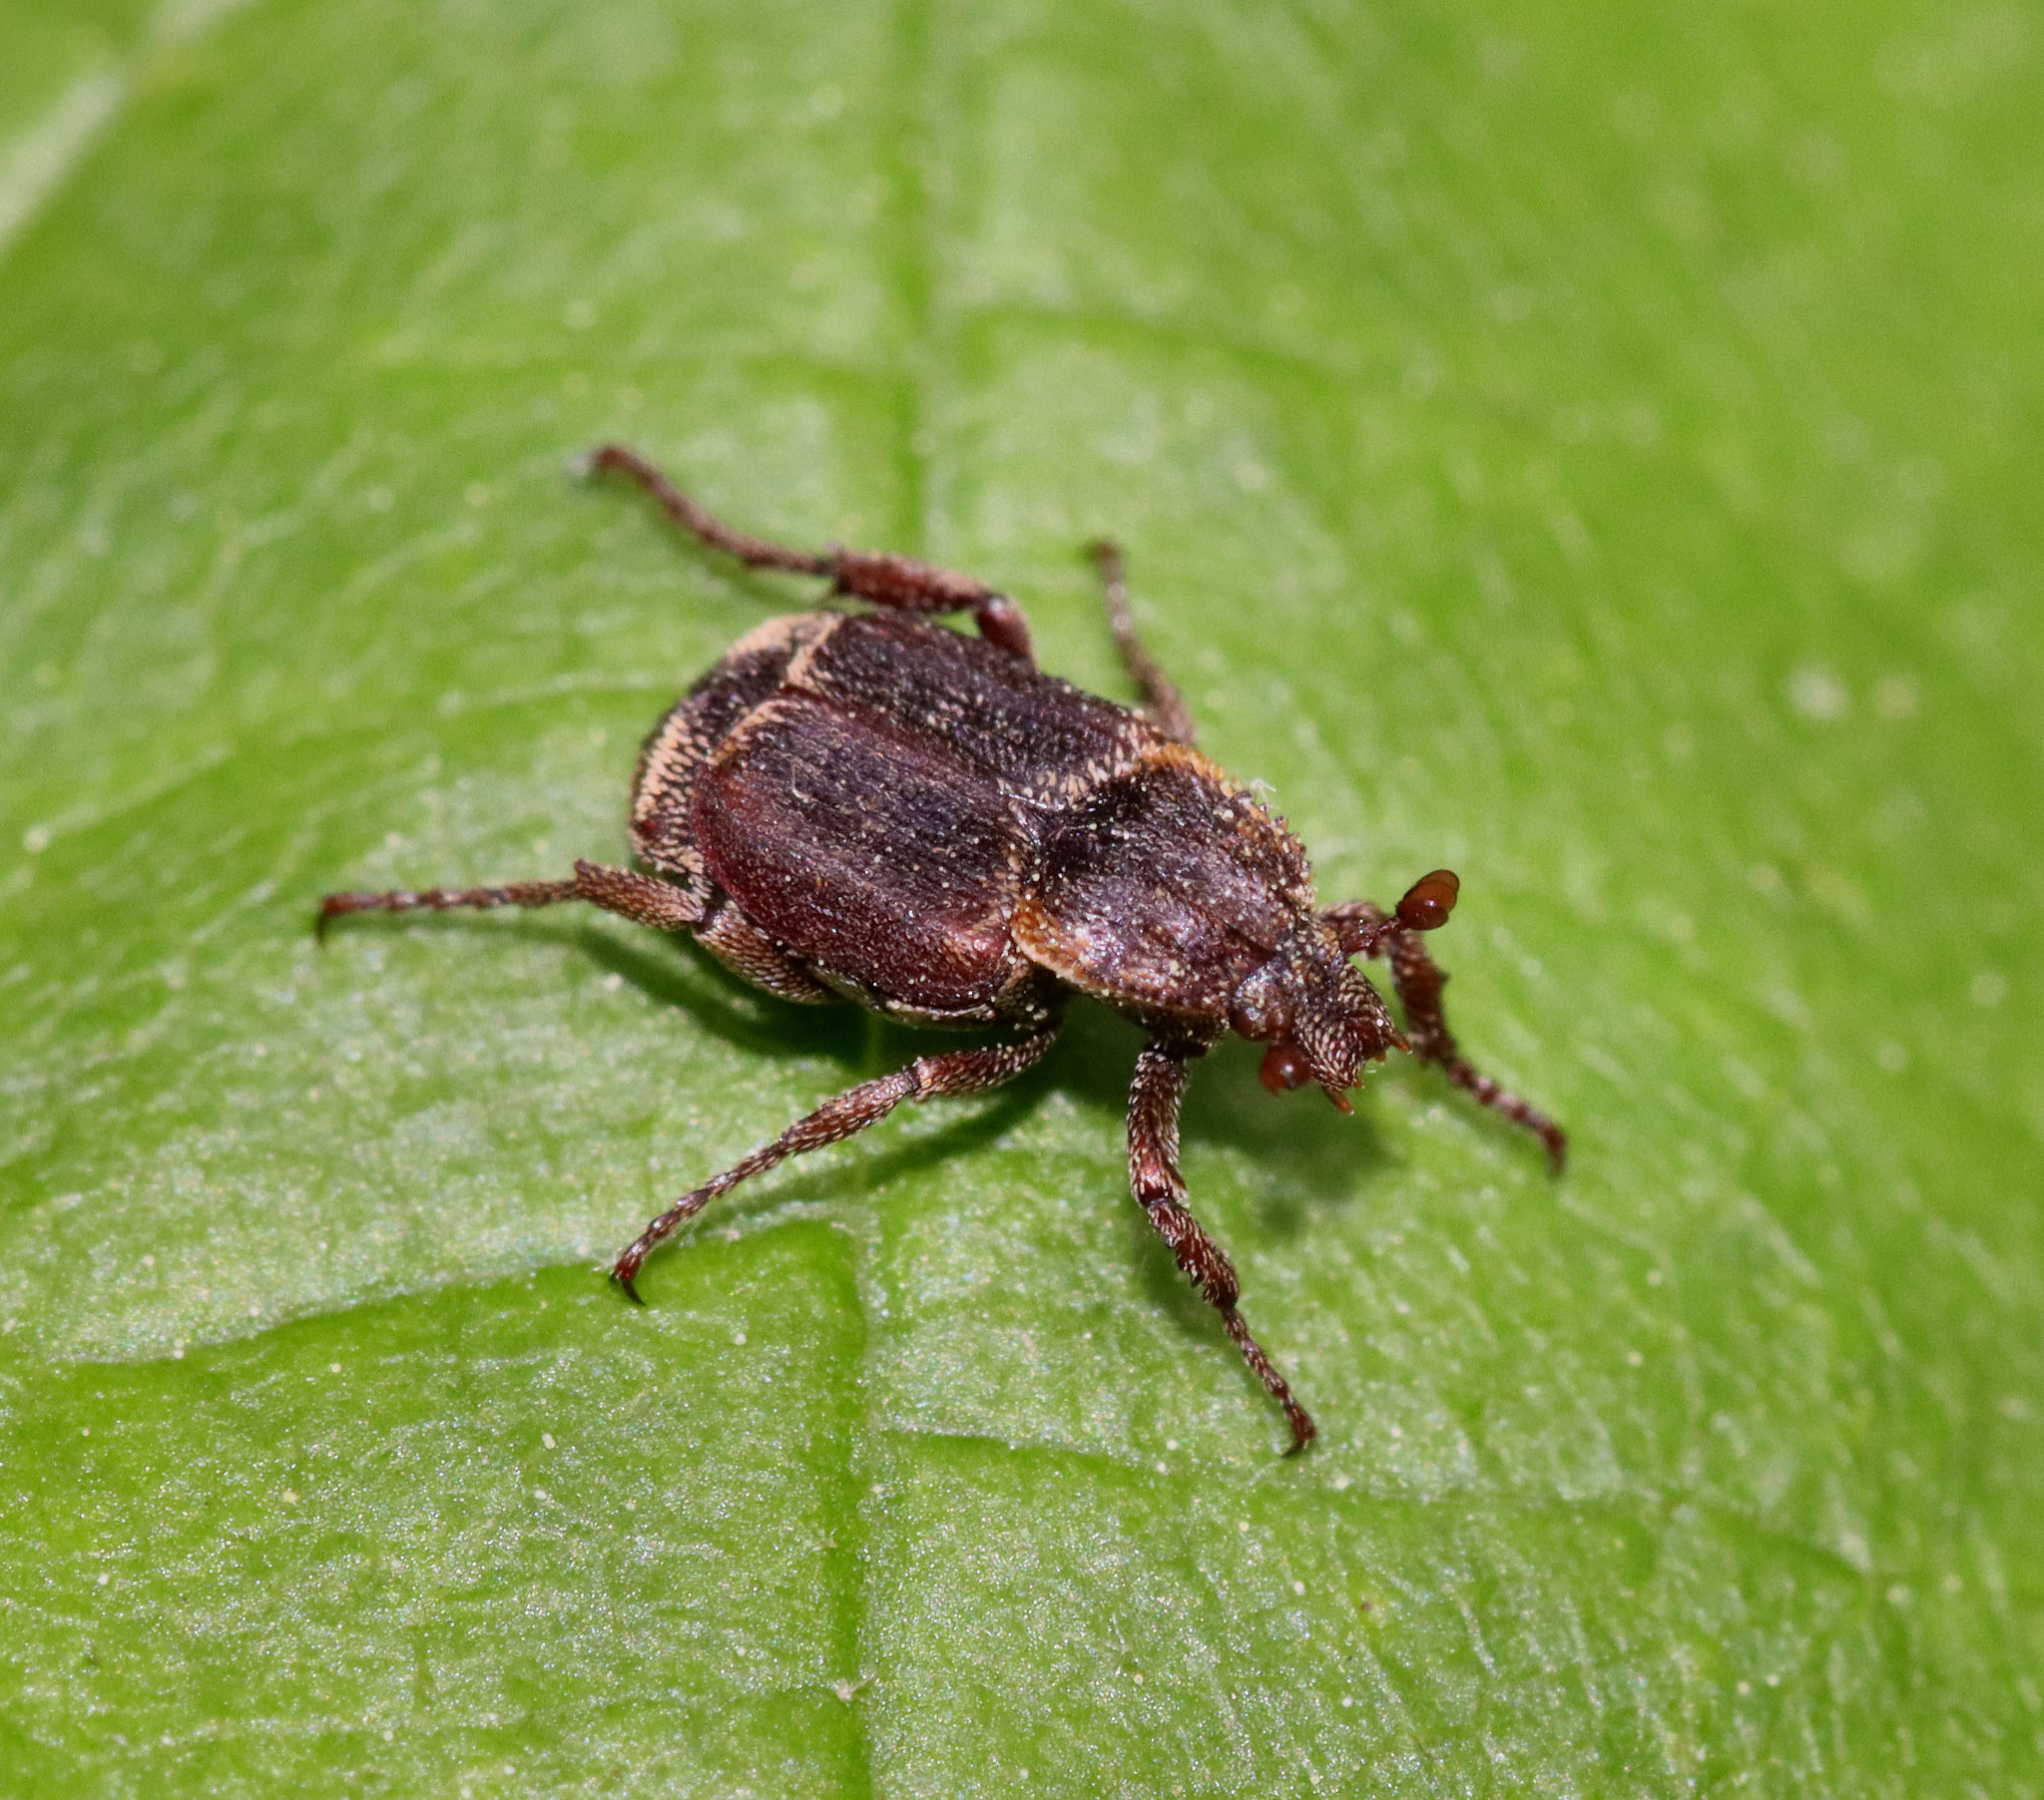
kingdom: Animalia
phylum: Arthropoda
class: Insecta
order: Coleoptera
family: Scarabaeidae
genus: Valgus
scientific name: Valgus canaliculatus
